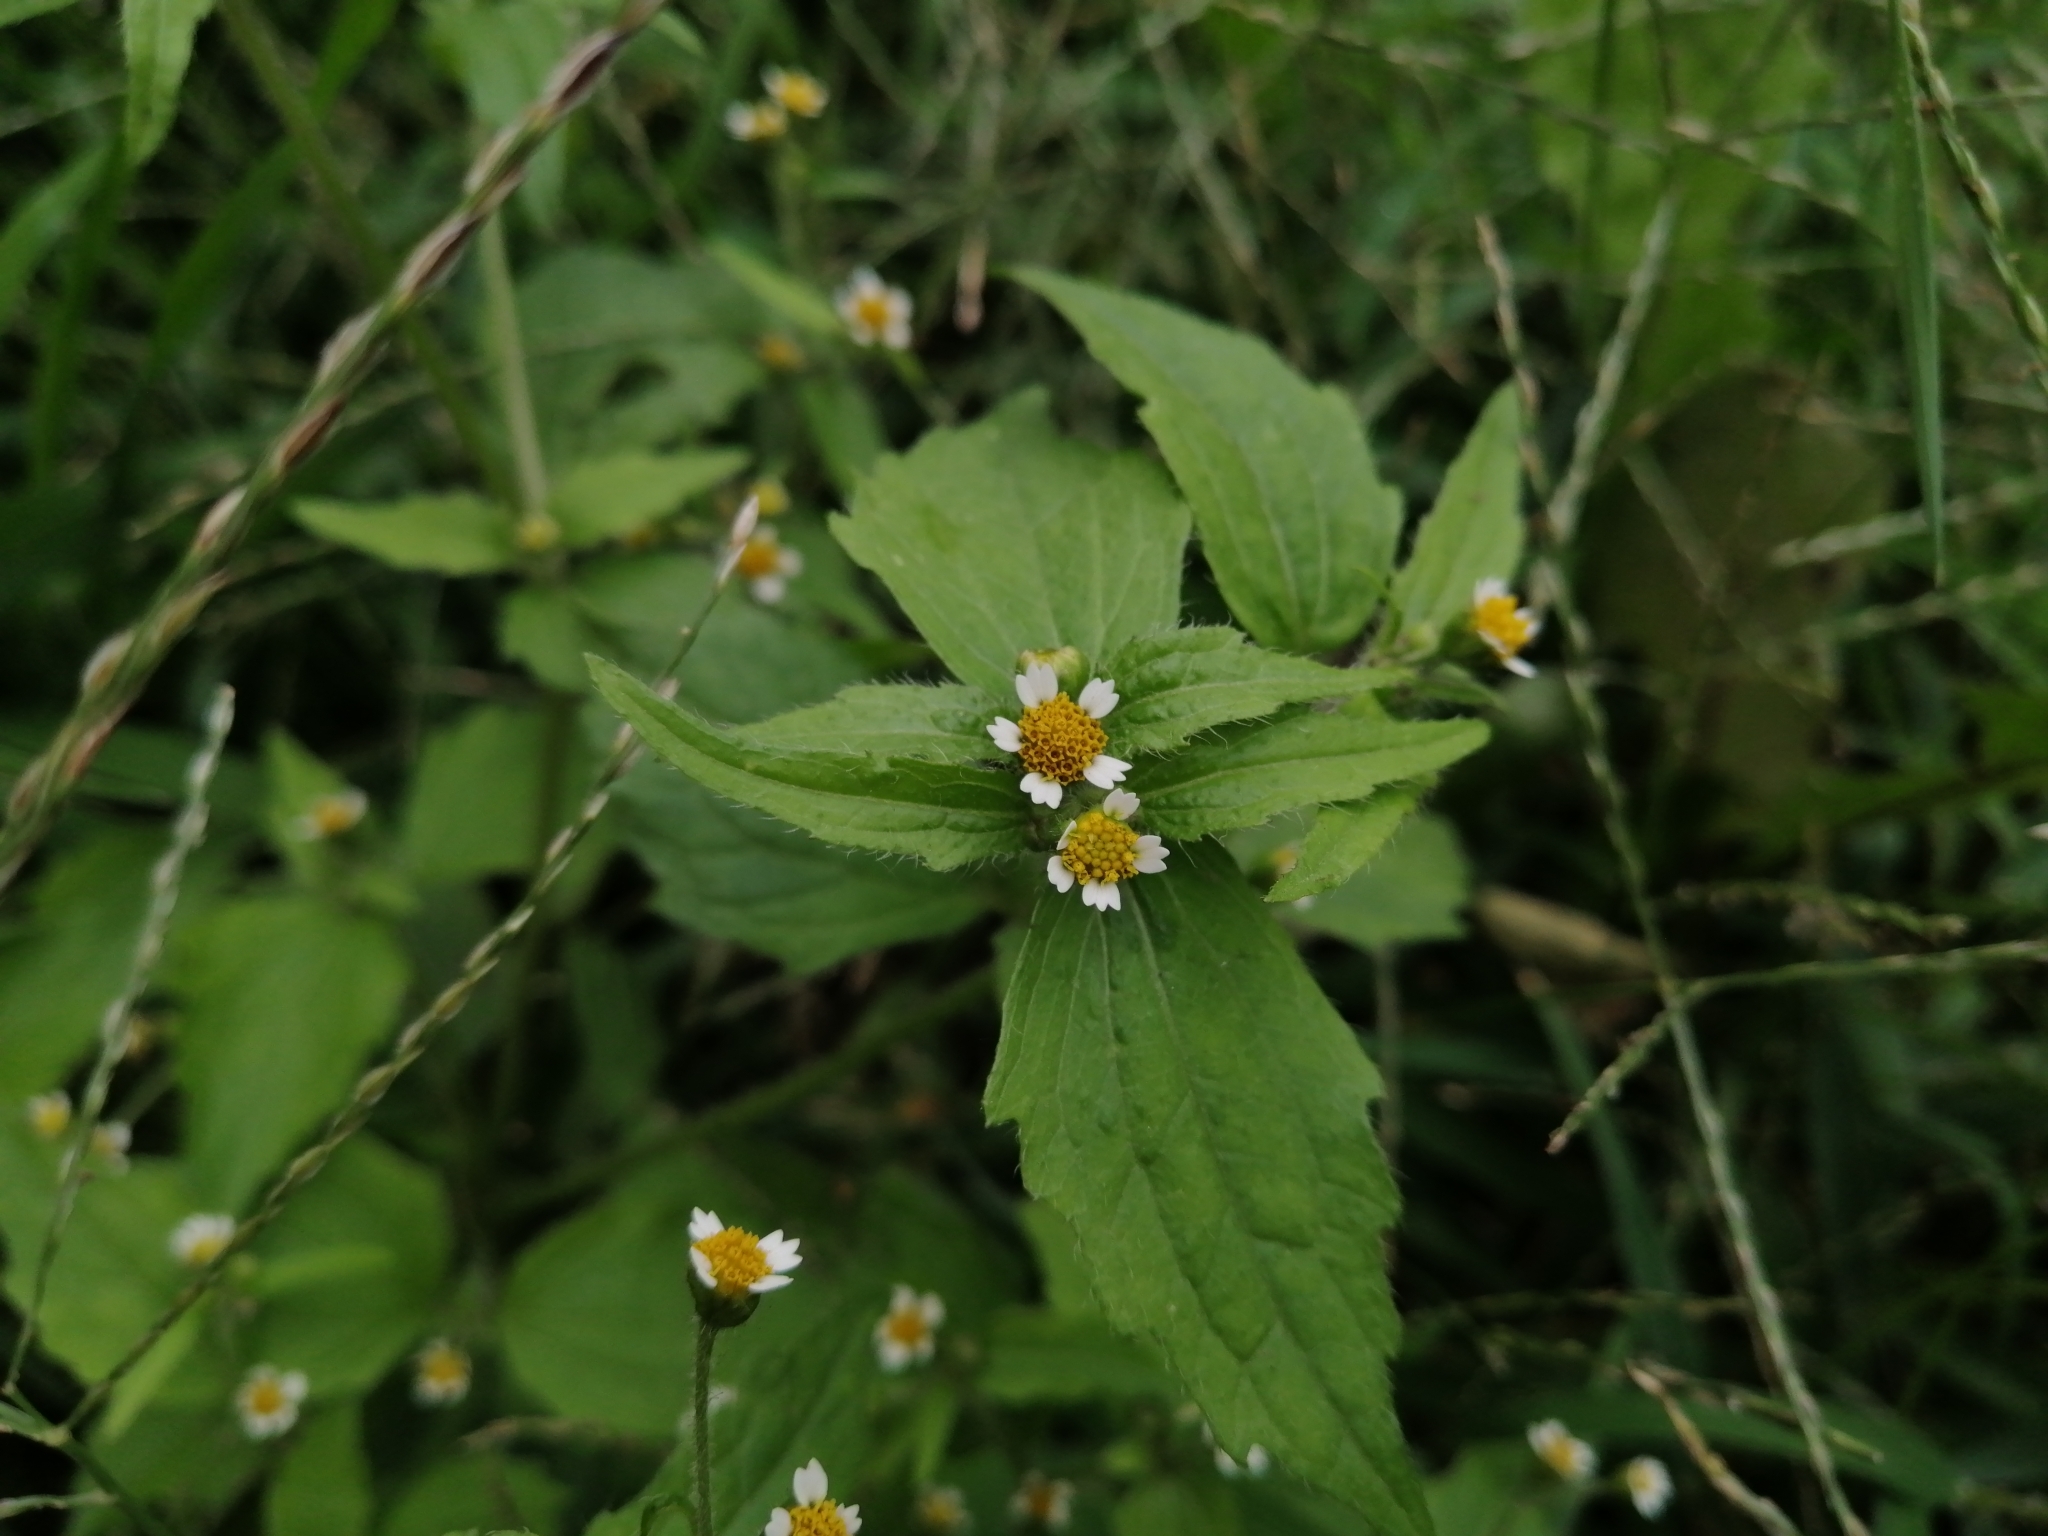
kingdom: Plantae
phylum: Tracheophyta
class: Magnoliopsida
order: Asterales
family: Asteraceae
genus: Galinsoga
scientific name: Galinsoga quadriradiata
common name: Shaggy soldier
